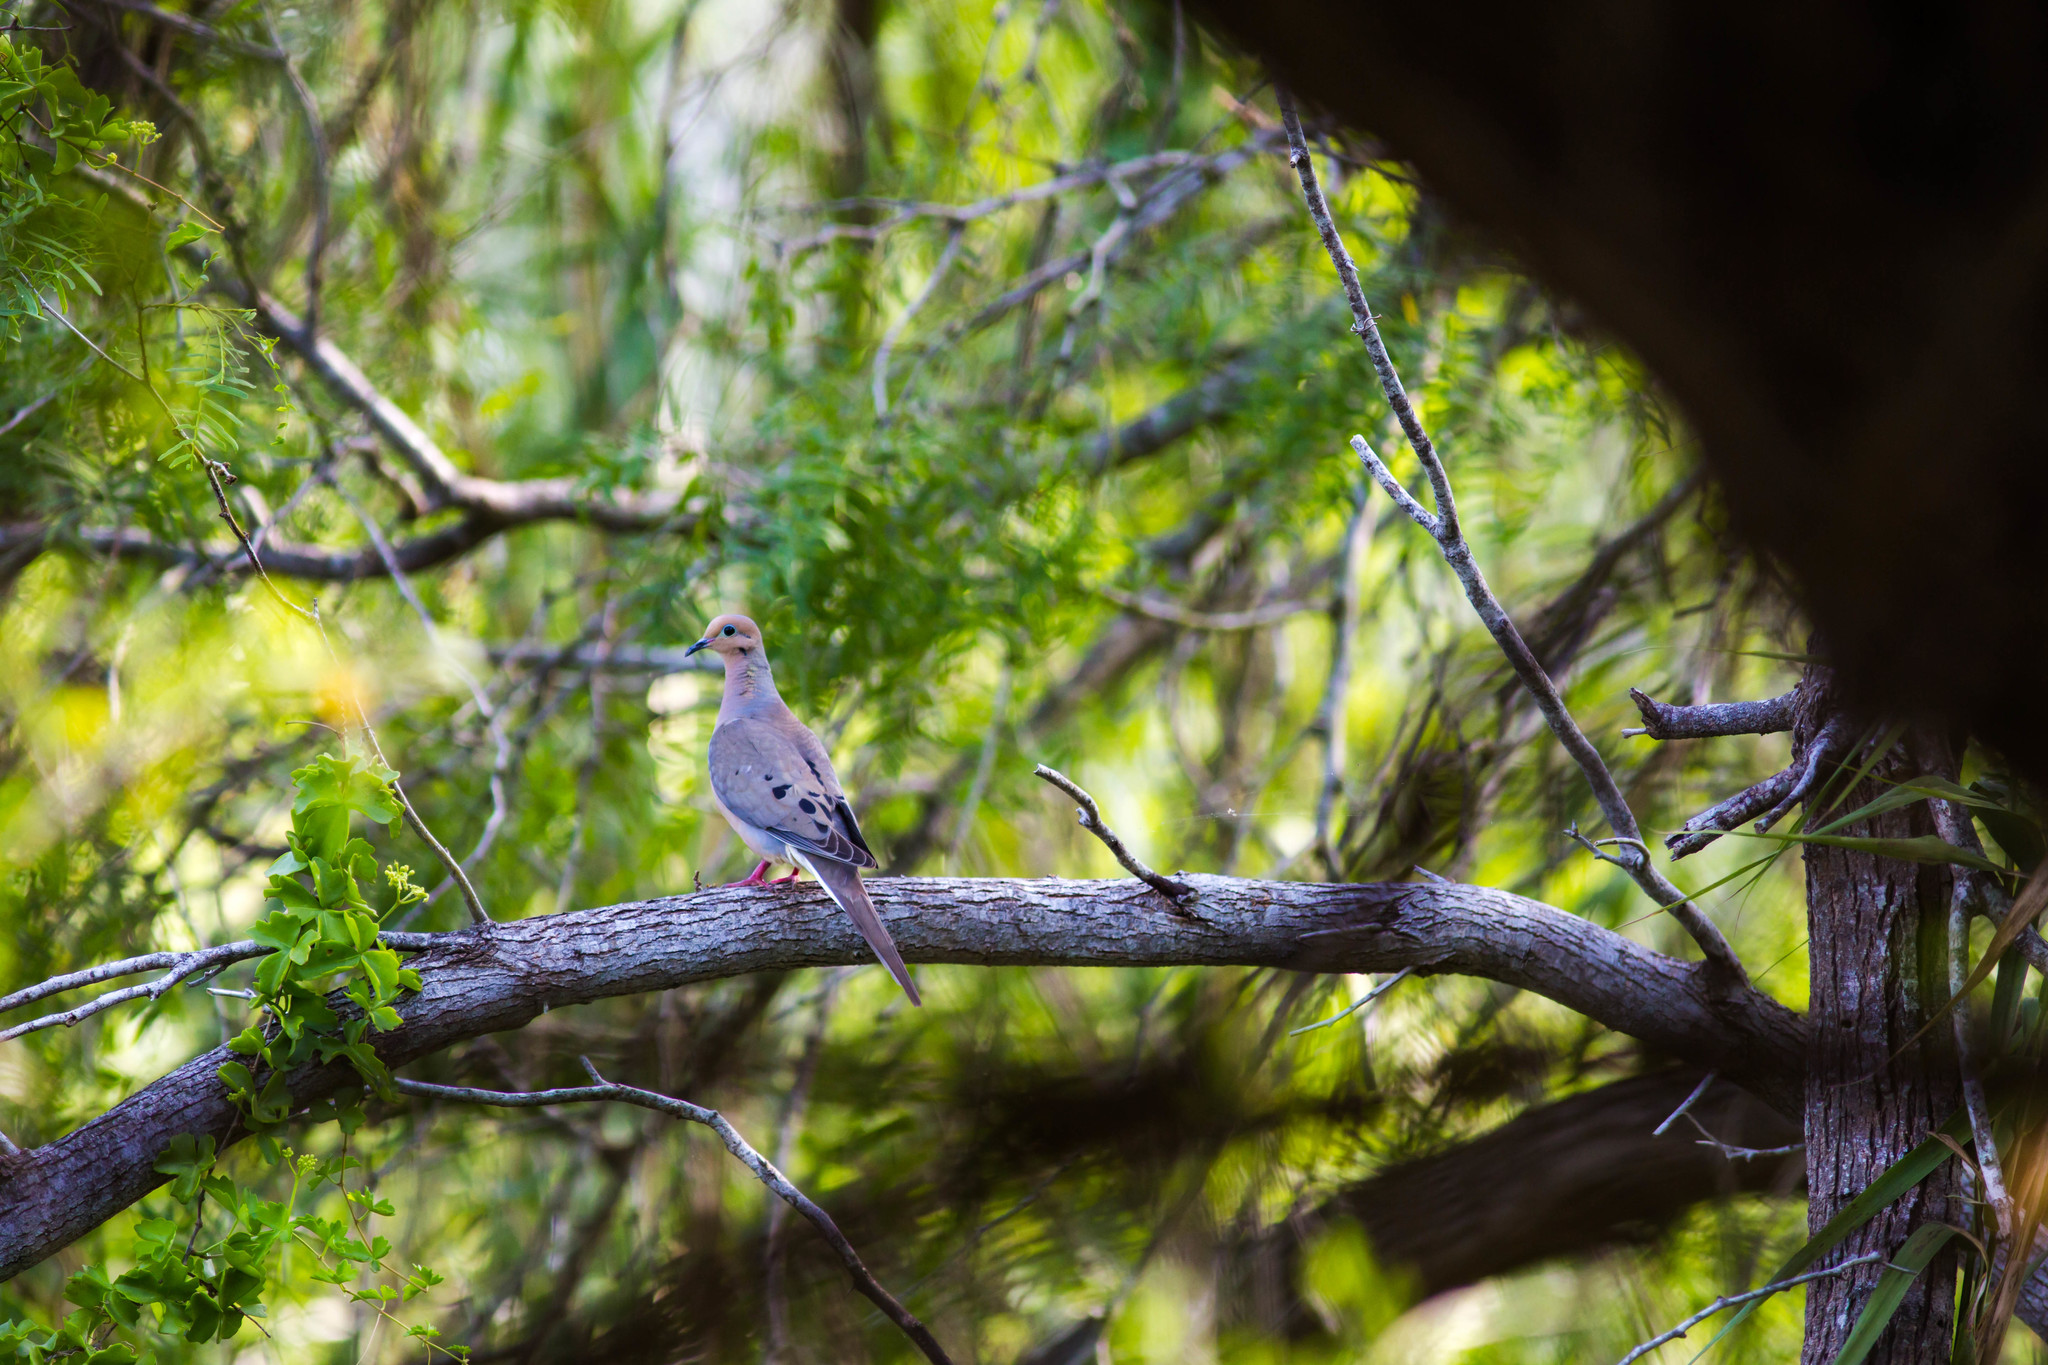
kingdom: Animalia
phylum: Chordata
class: Aves
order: Columbiformes
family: Columbidae
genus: Zenaida
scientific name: Zenaida macroura
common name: Mourning dove
